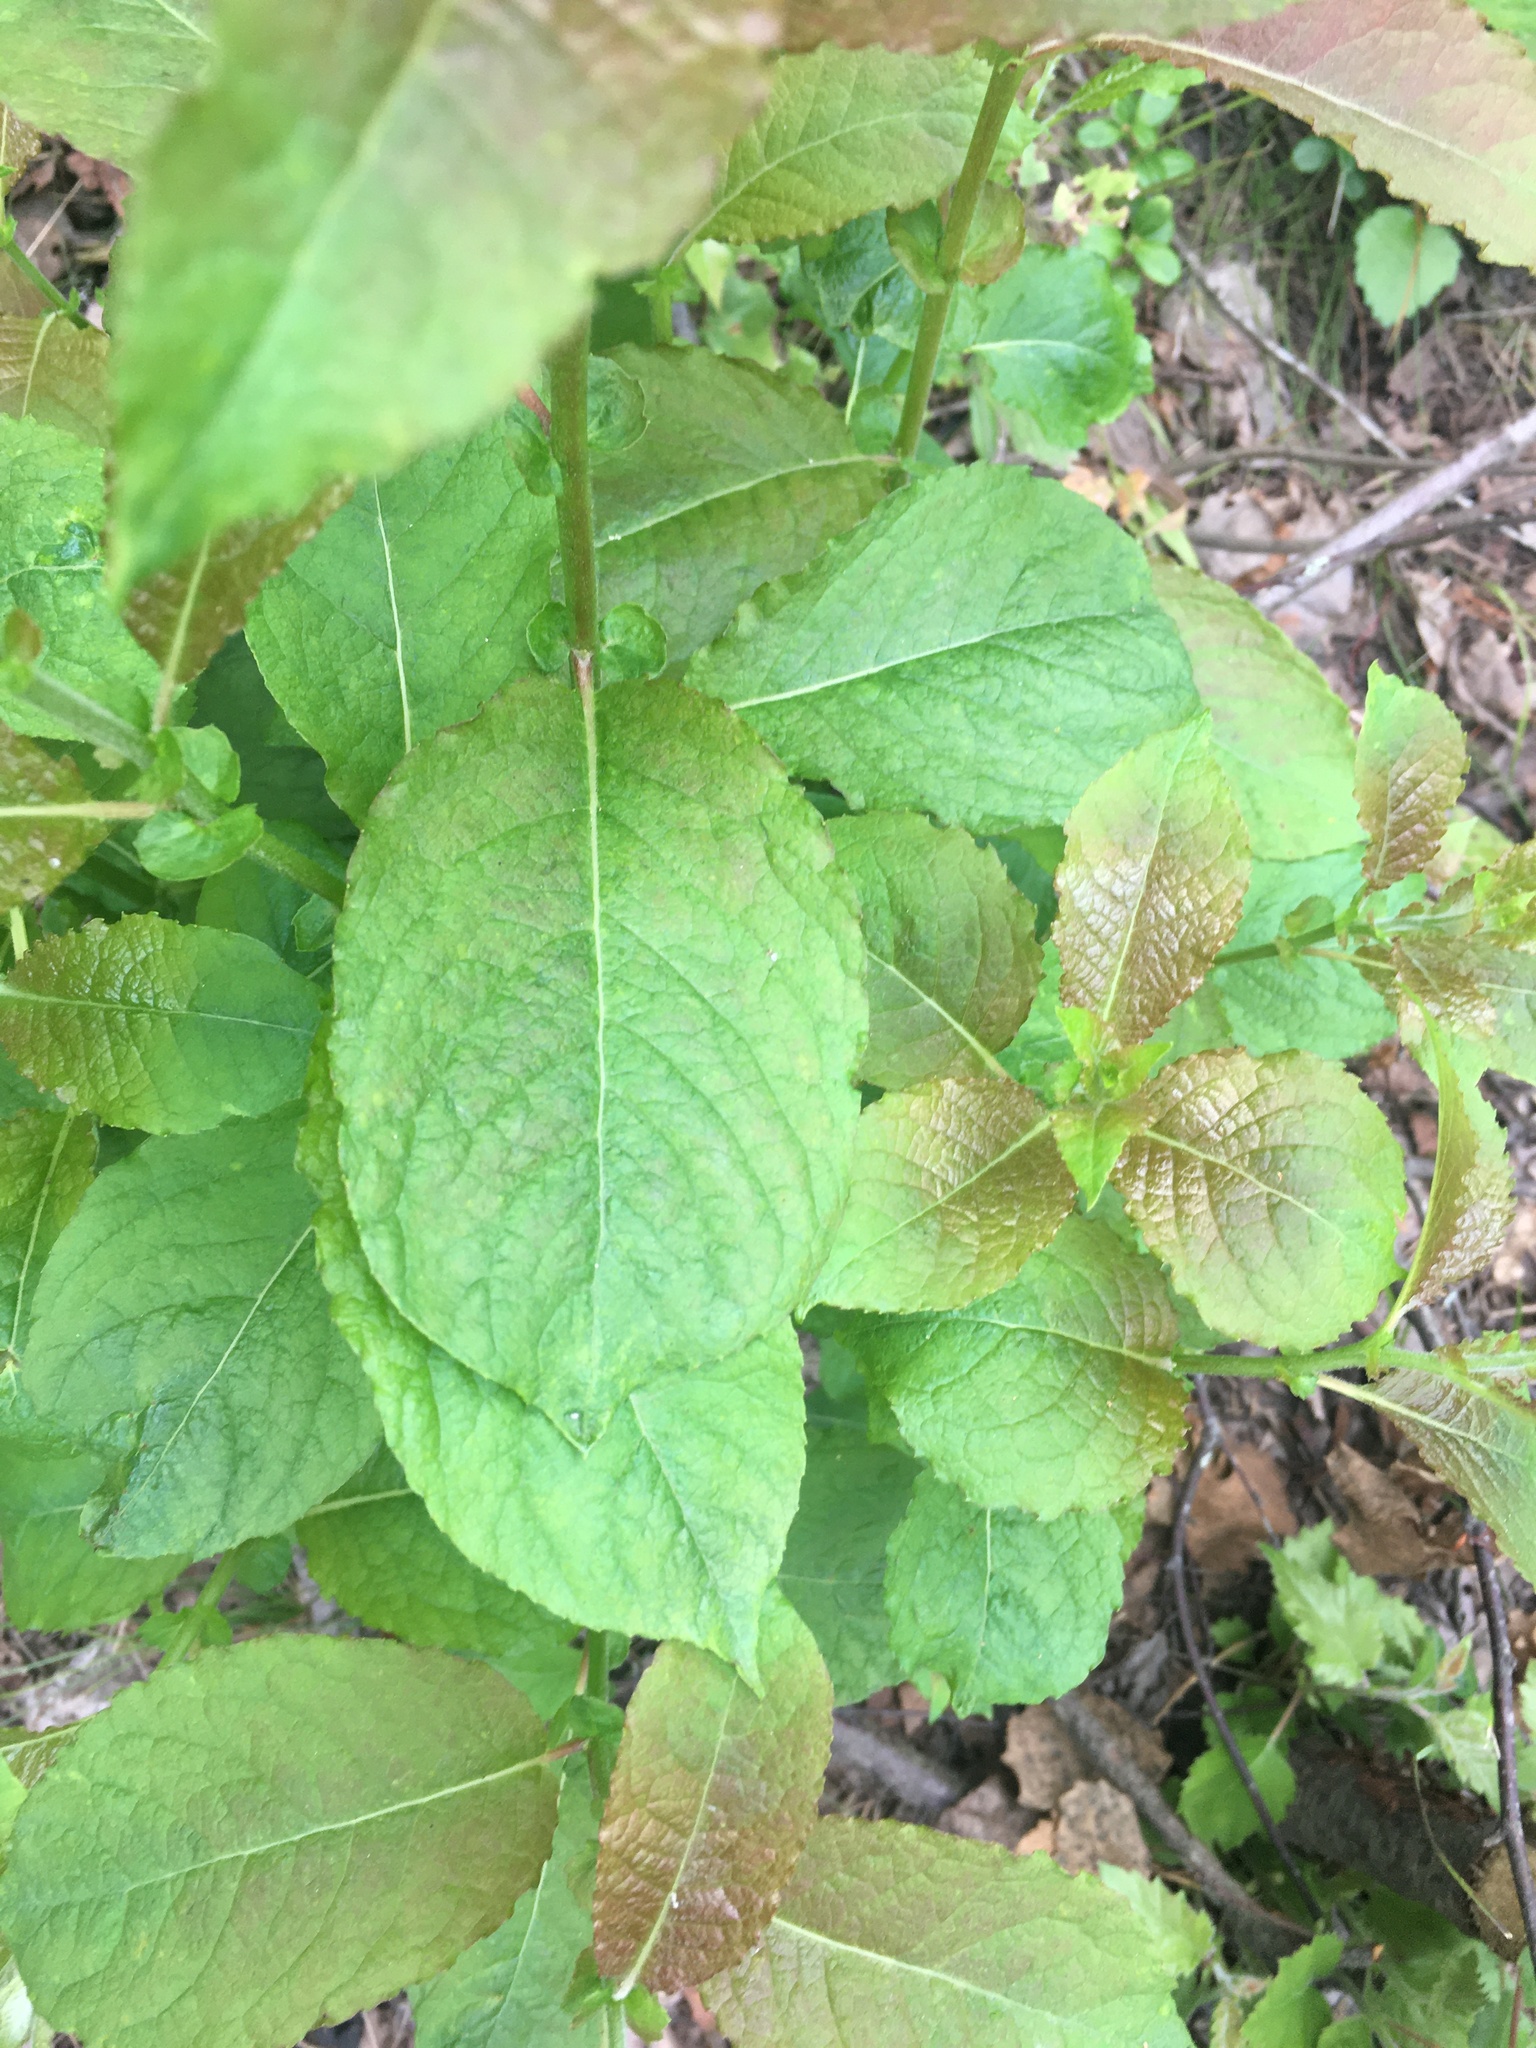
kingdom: Plantae
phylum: Tracheophyta
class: Magnoliopsida
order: Malpighiales
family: Salicaceae
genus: Salix
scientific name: Salix caprea
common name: Goat willow
